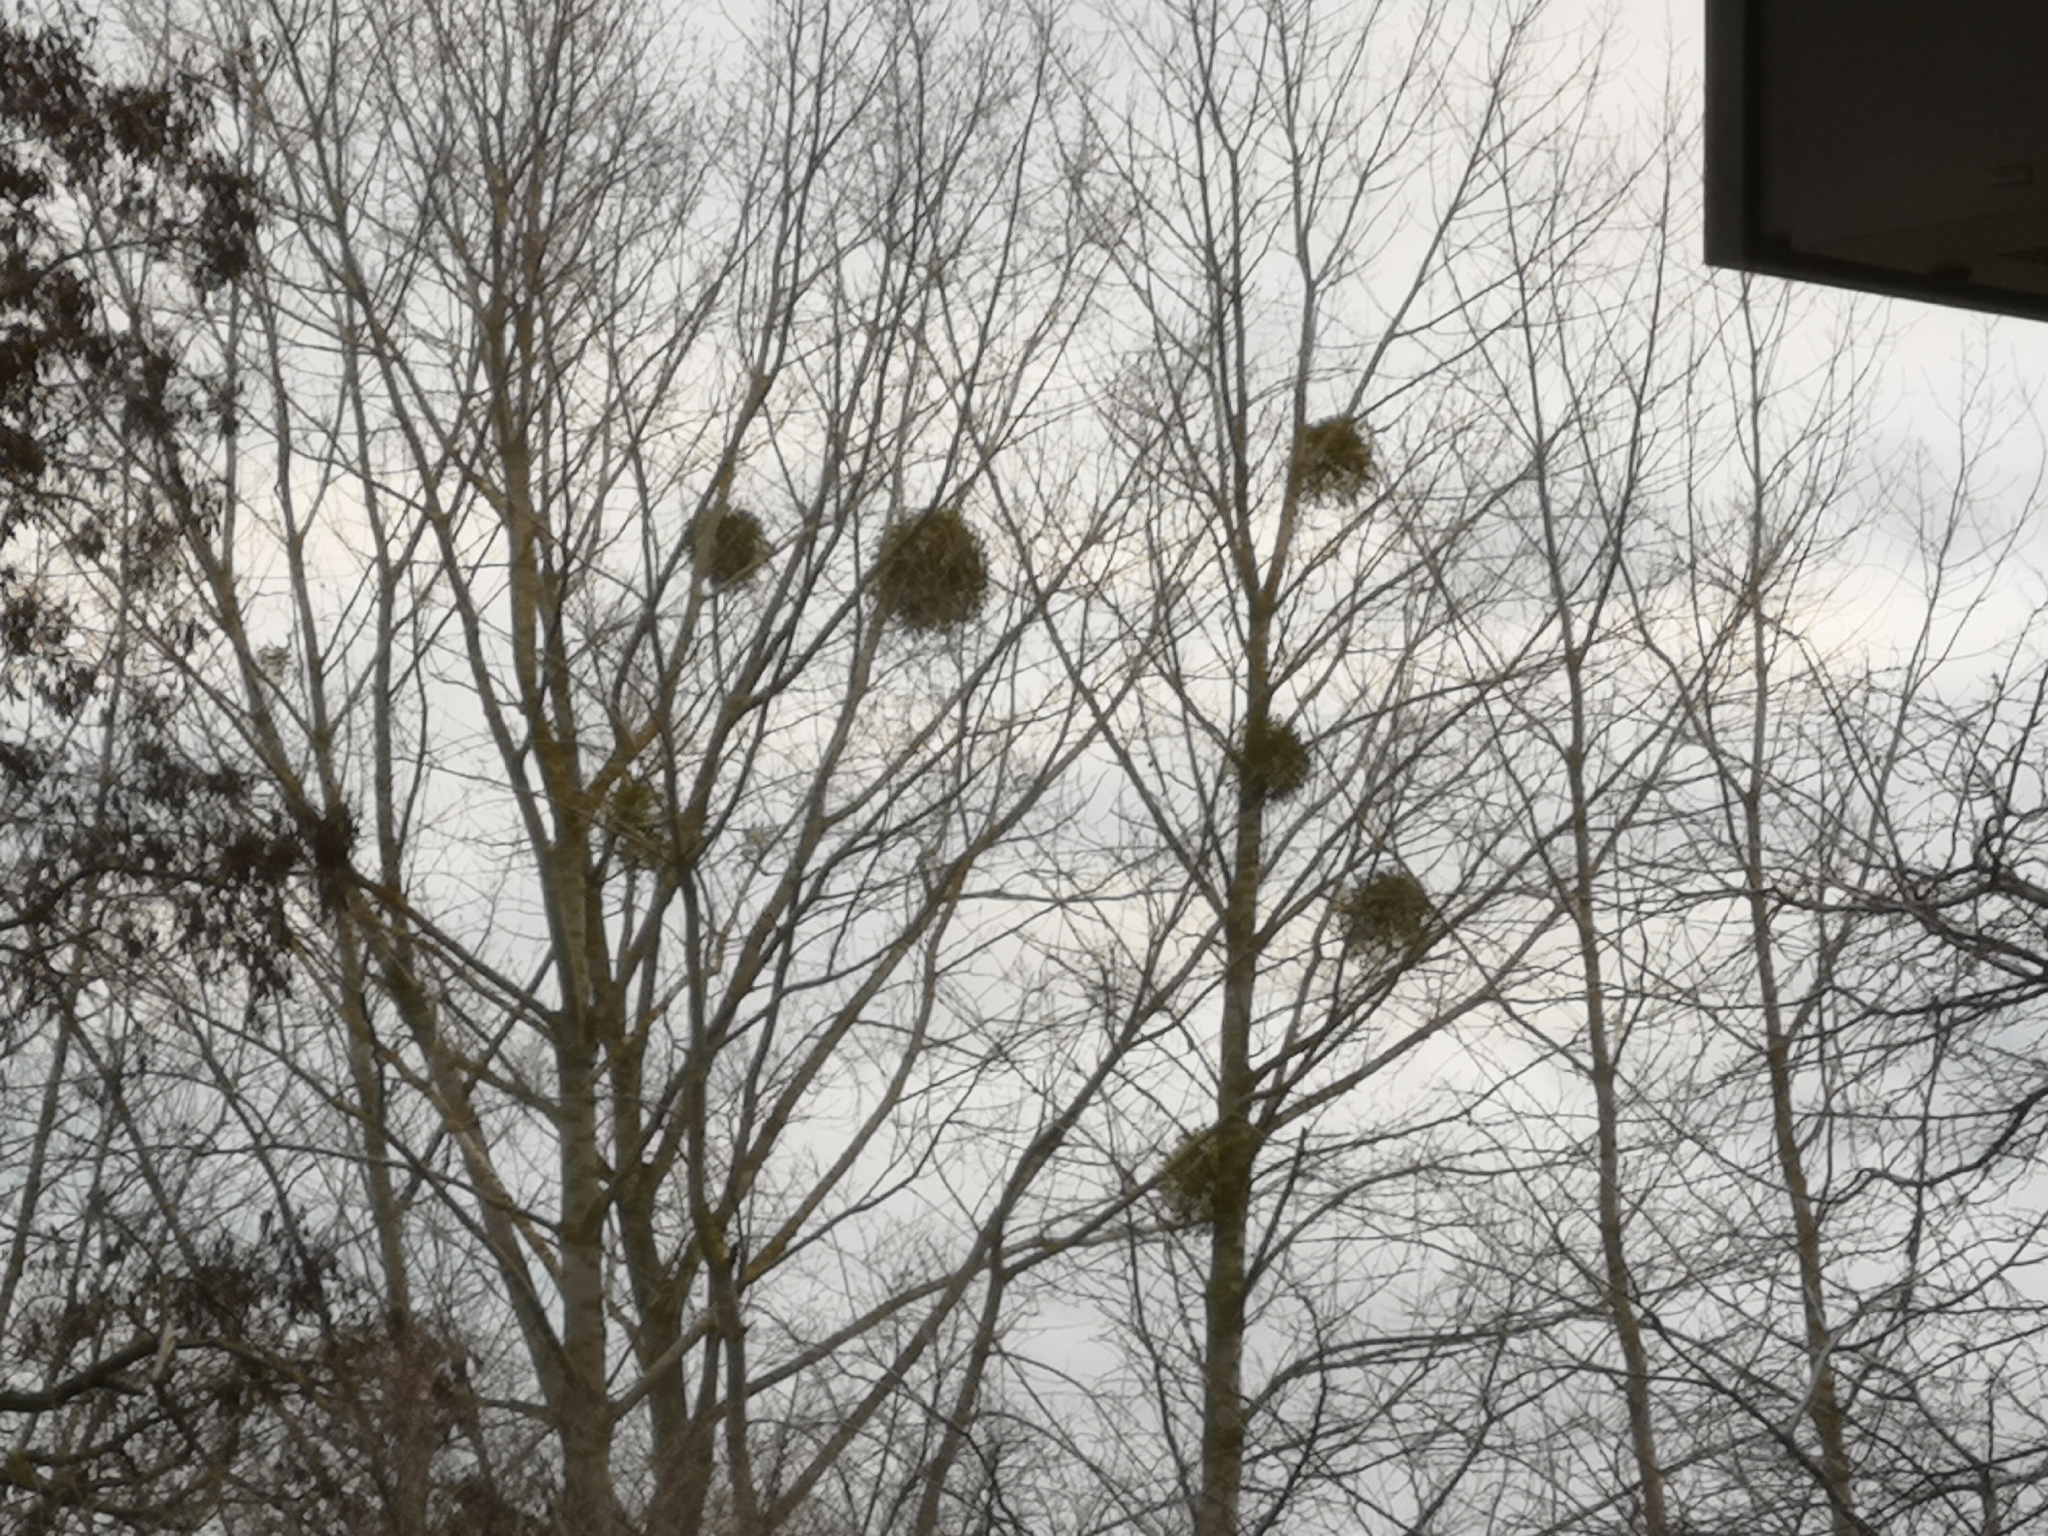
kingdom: Plantae
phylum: Tracheophyta
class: Magnoliopsida
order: Santalales
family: Viscaceae
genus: Viscum
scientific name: Viscum album
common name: Mistletoe
